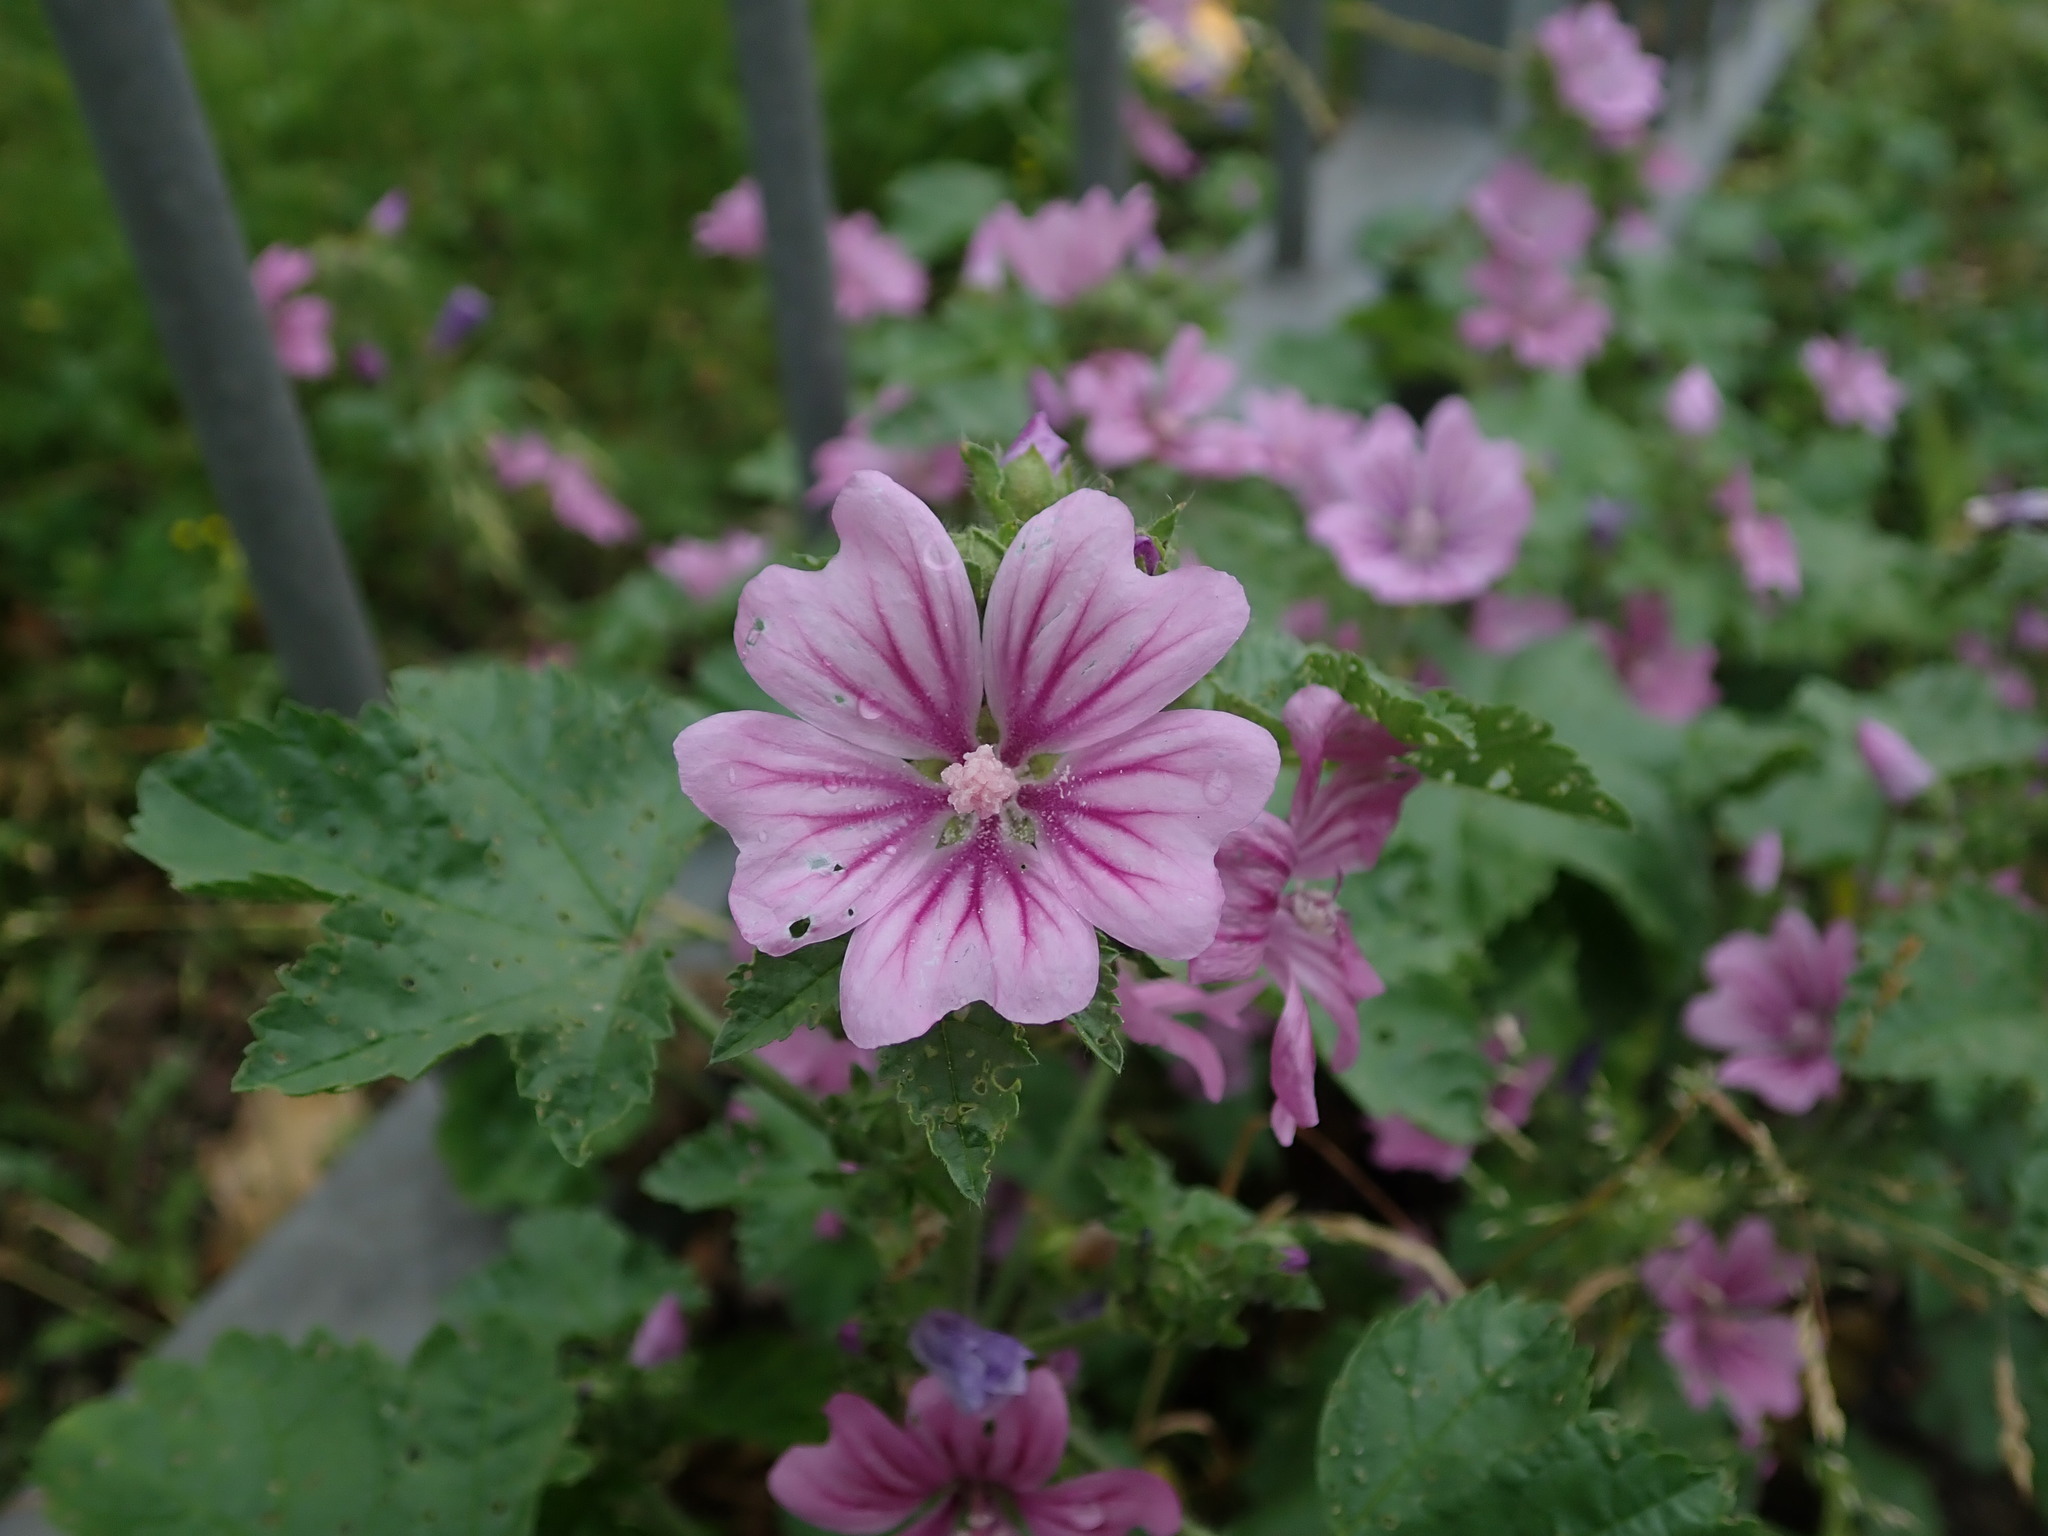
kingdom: Plantae
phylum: Tracheophyta
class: Magnoliopsida
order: Malvales
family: Malvaceae
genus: Malva
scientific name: Malva sylvestris
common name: Common mallow
